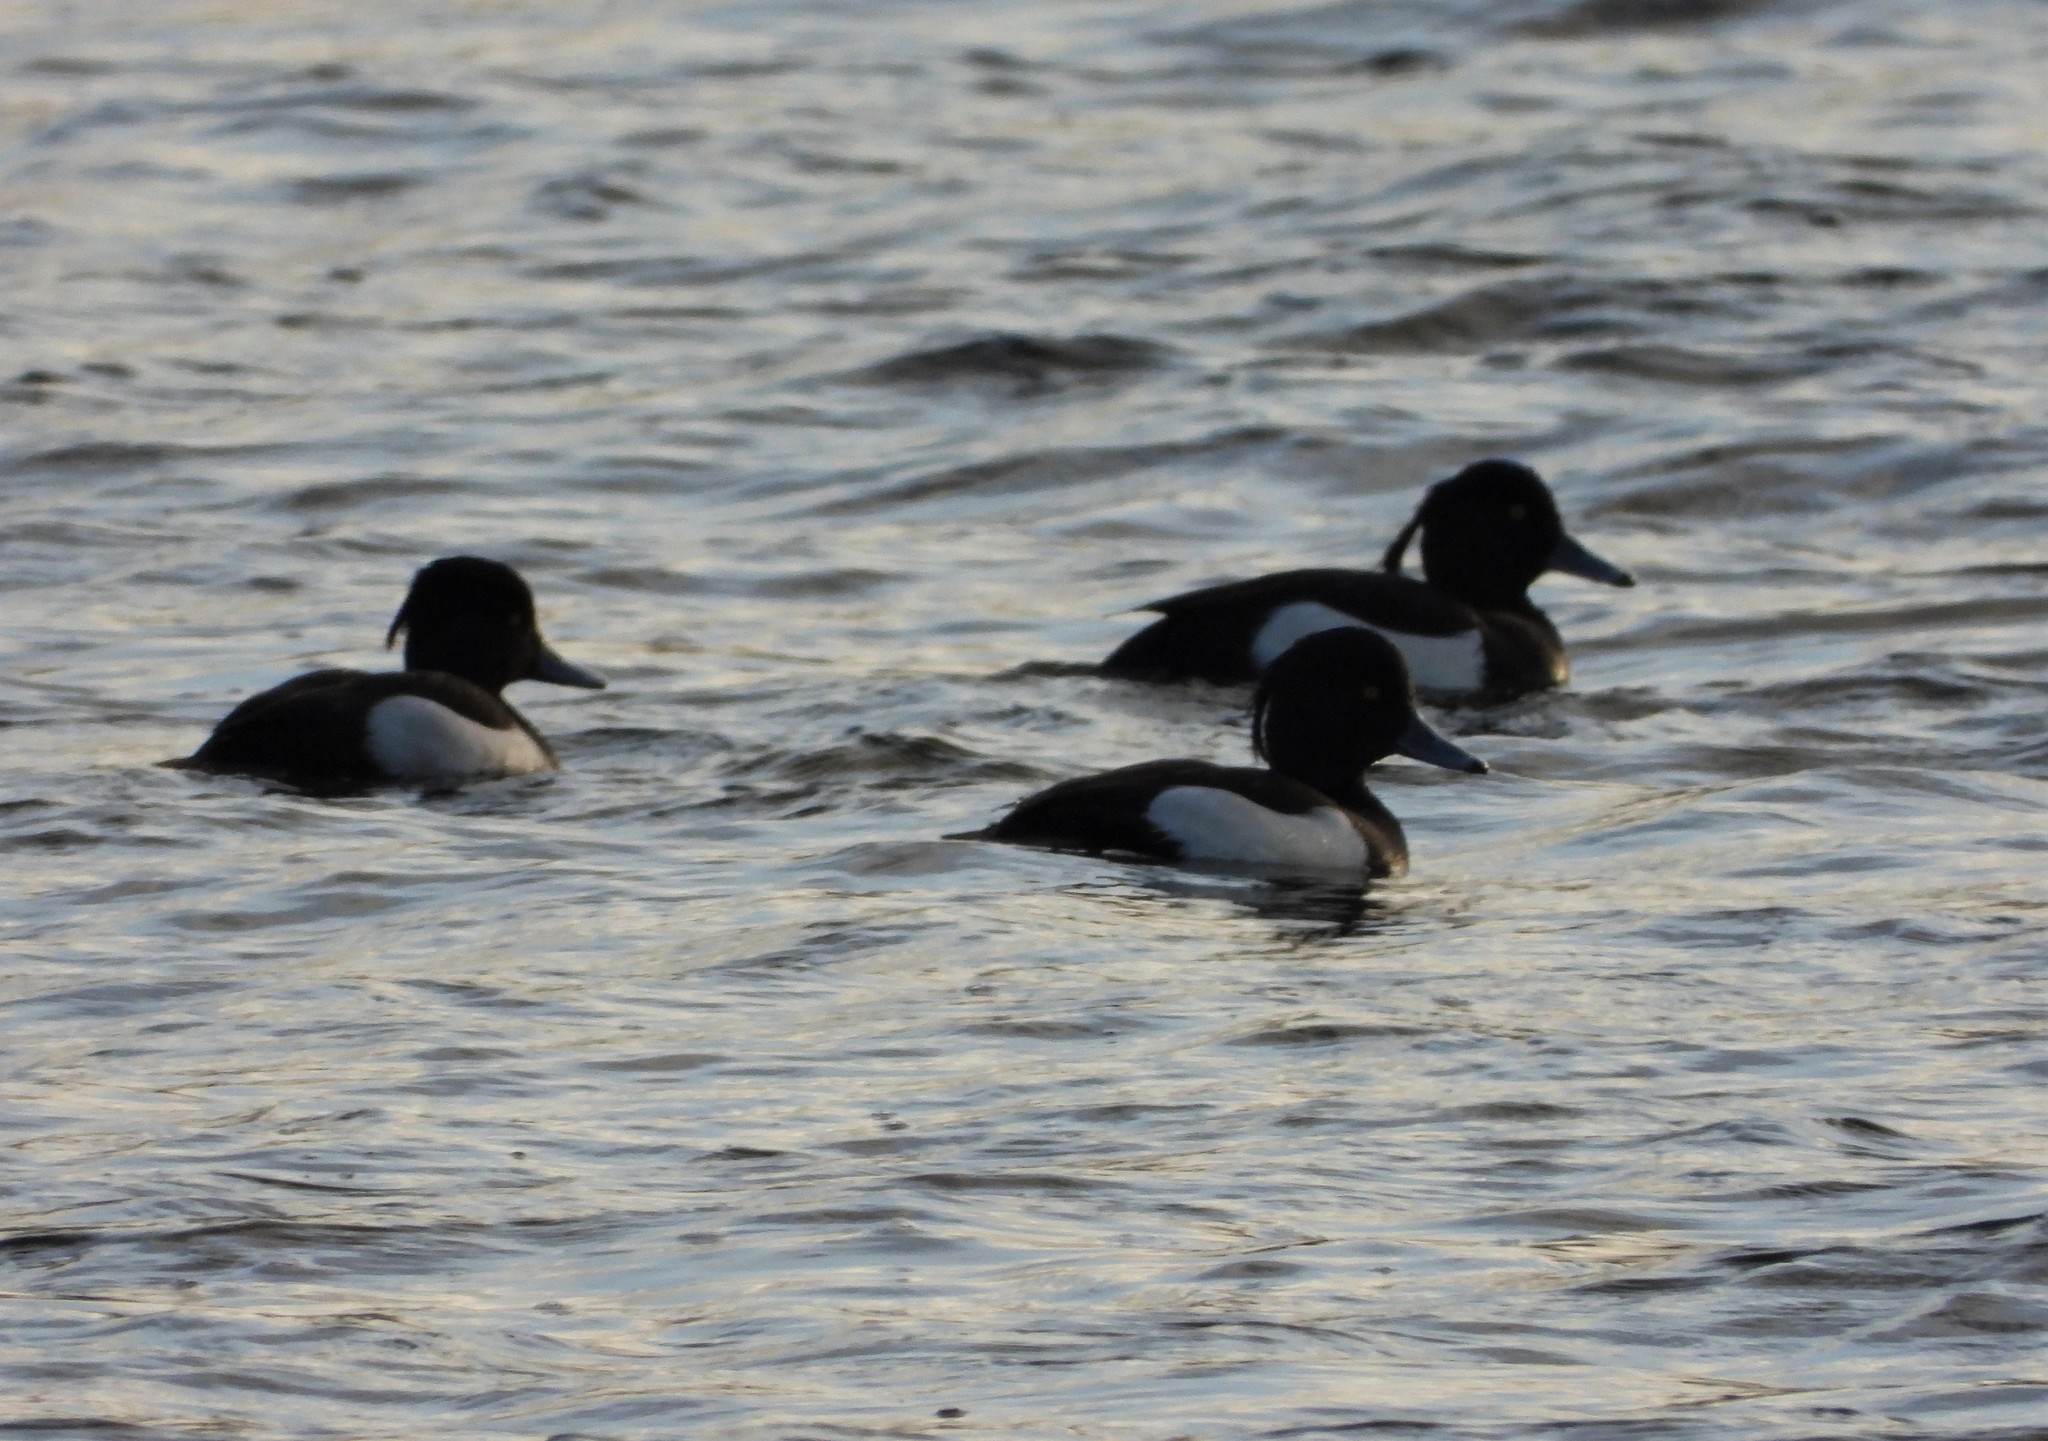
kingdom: Animalia
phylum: Chordata
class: Aves
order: Anseriformes
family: Anatidae
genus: Aythya
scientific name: Aythya fuligula
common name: Tufted duck
